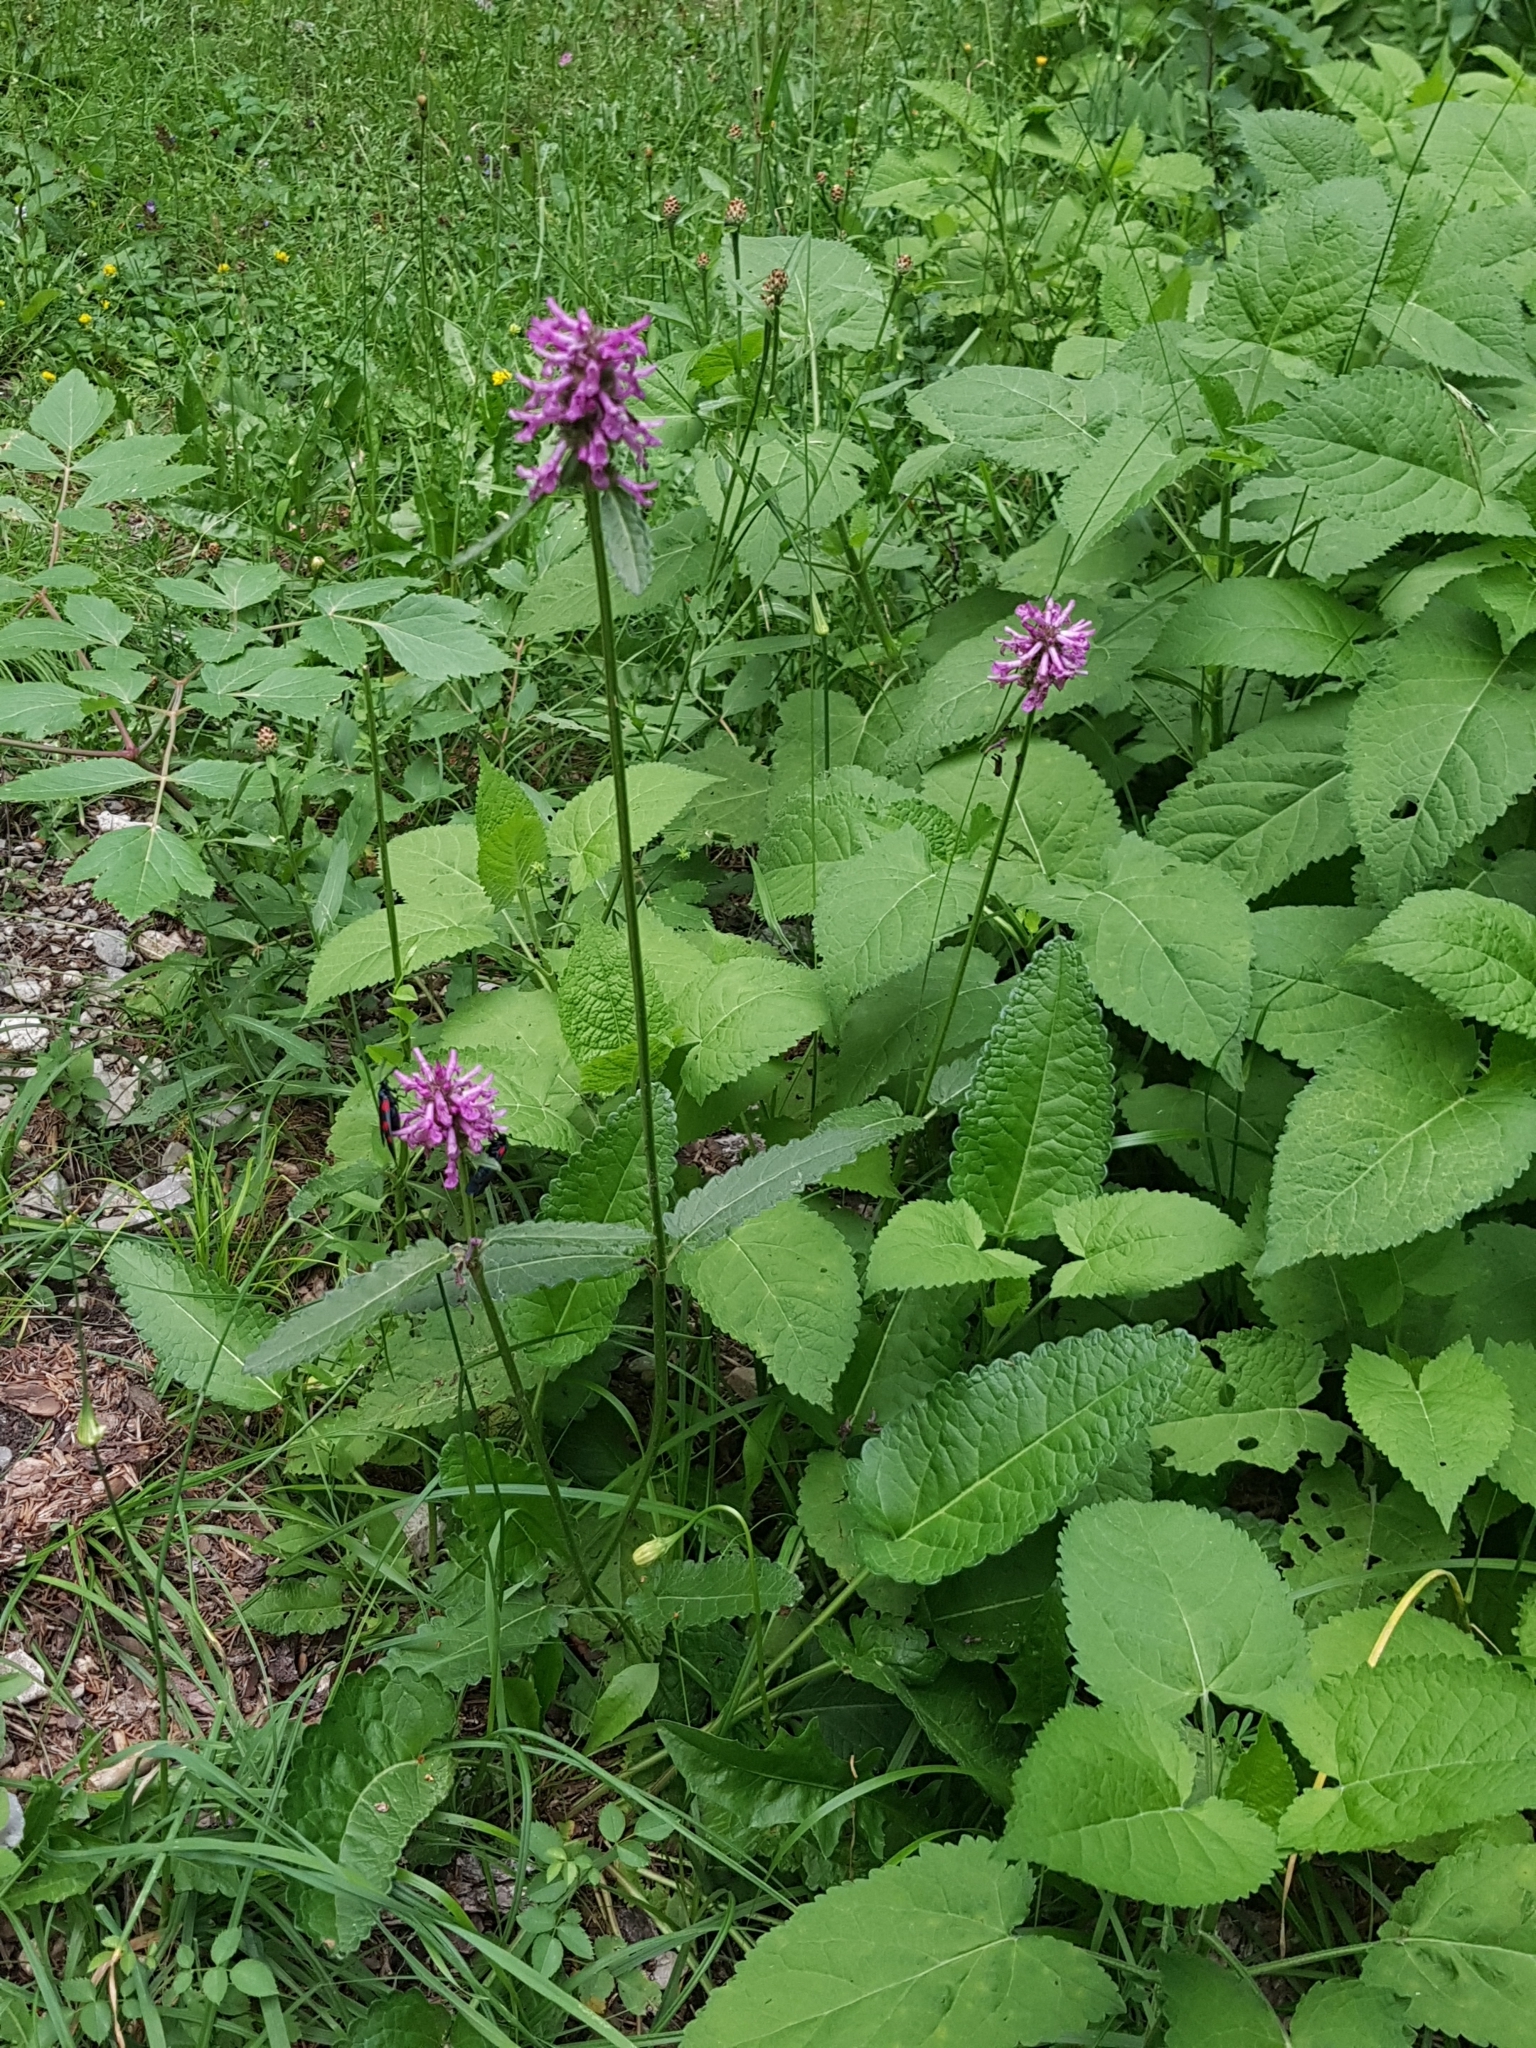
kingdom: Plantae
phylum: Tracheophyta
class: Magnoliopsida
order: Lamiales
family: Lamiaceae
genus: Betonica
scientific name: Betonica officinalis
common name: Bishop's-wort
